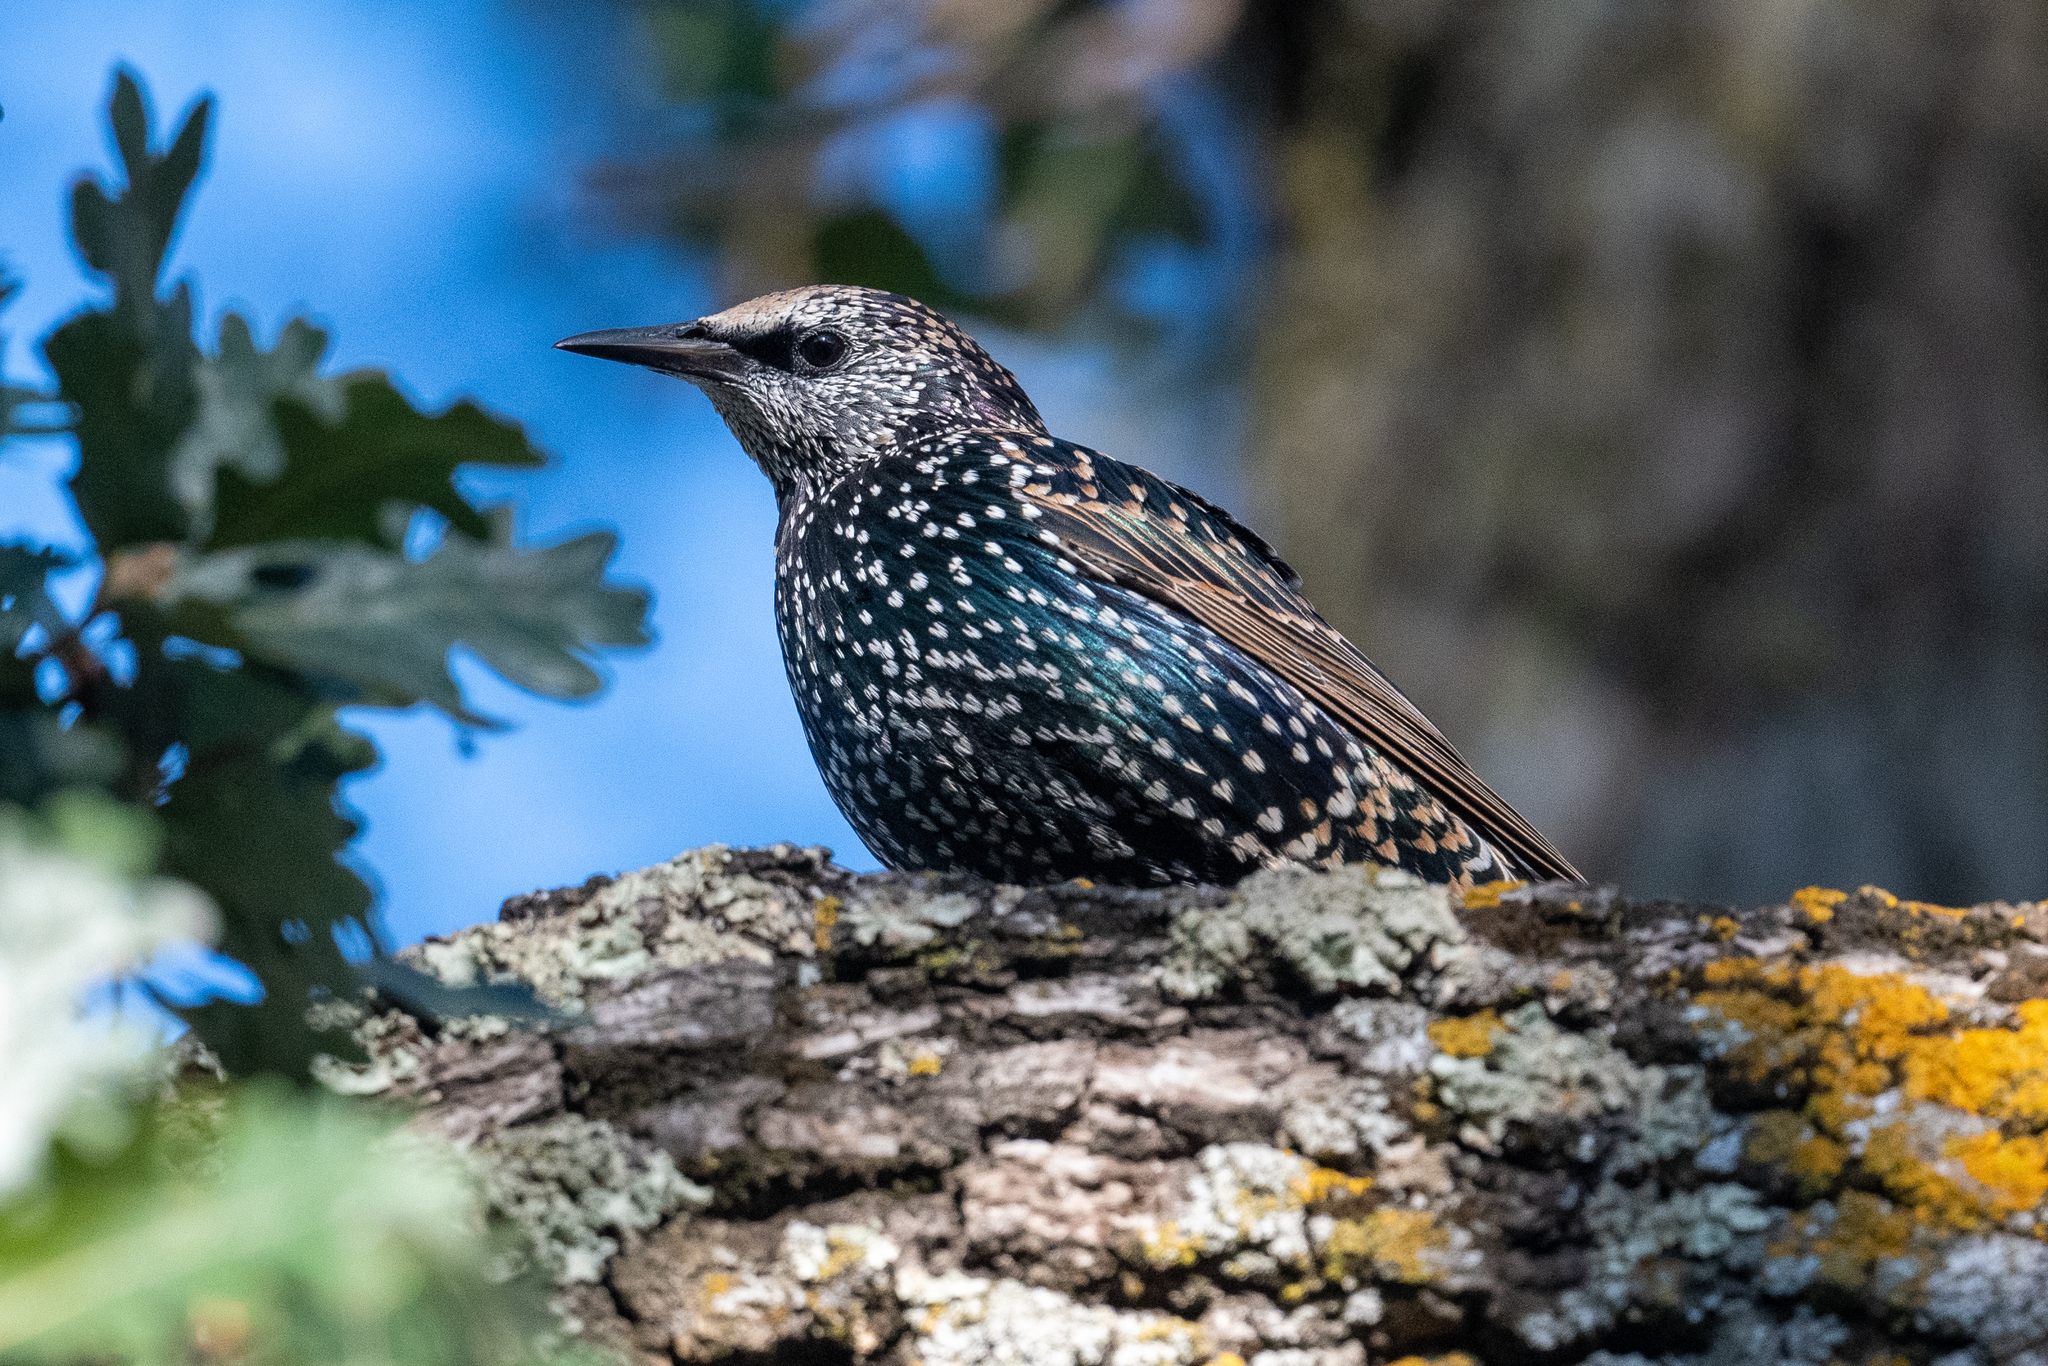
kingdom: Animalia
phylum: Chordata
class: Aves
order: Passeriformes
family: Sturnidae
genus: Sturnus
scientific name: Sturnus vulgaris
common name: Common starling
